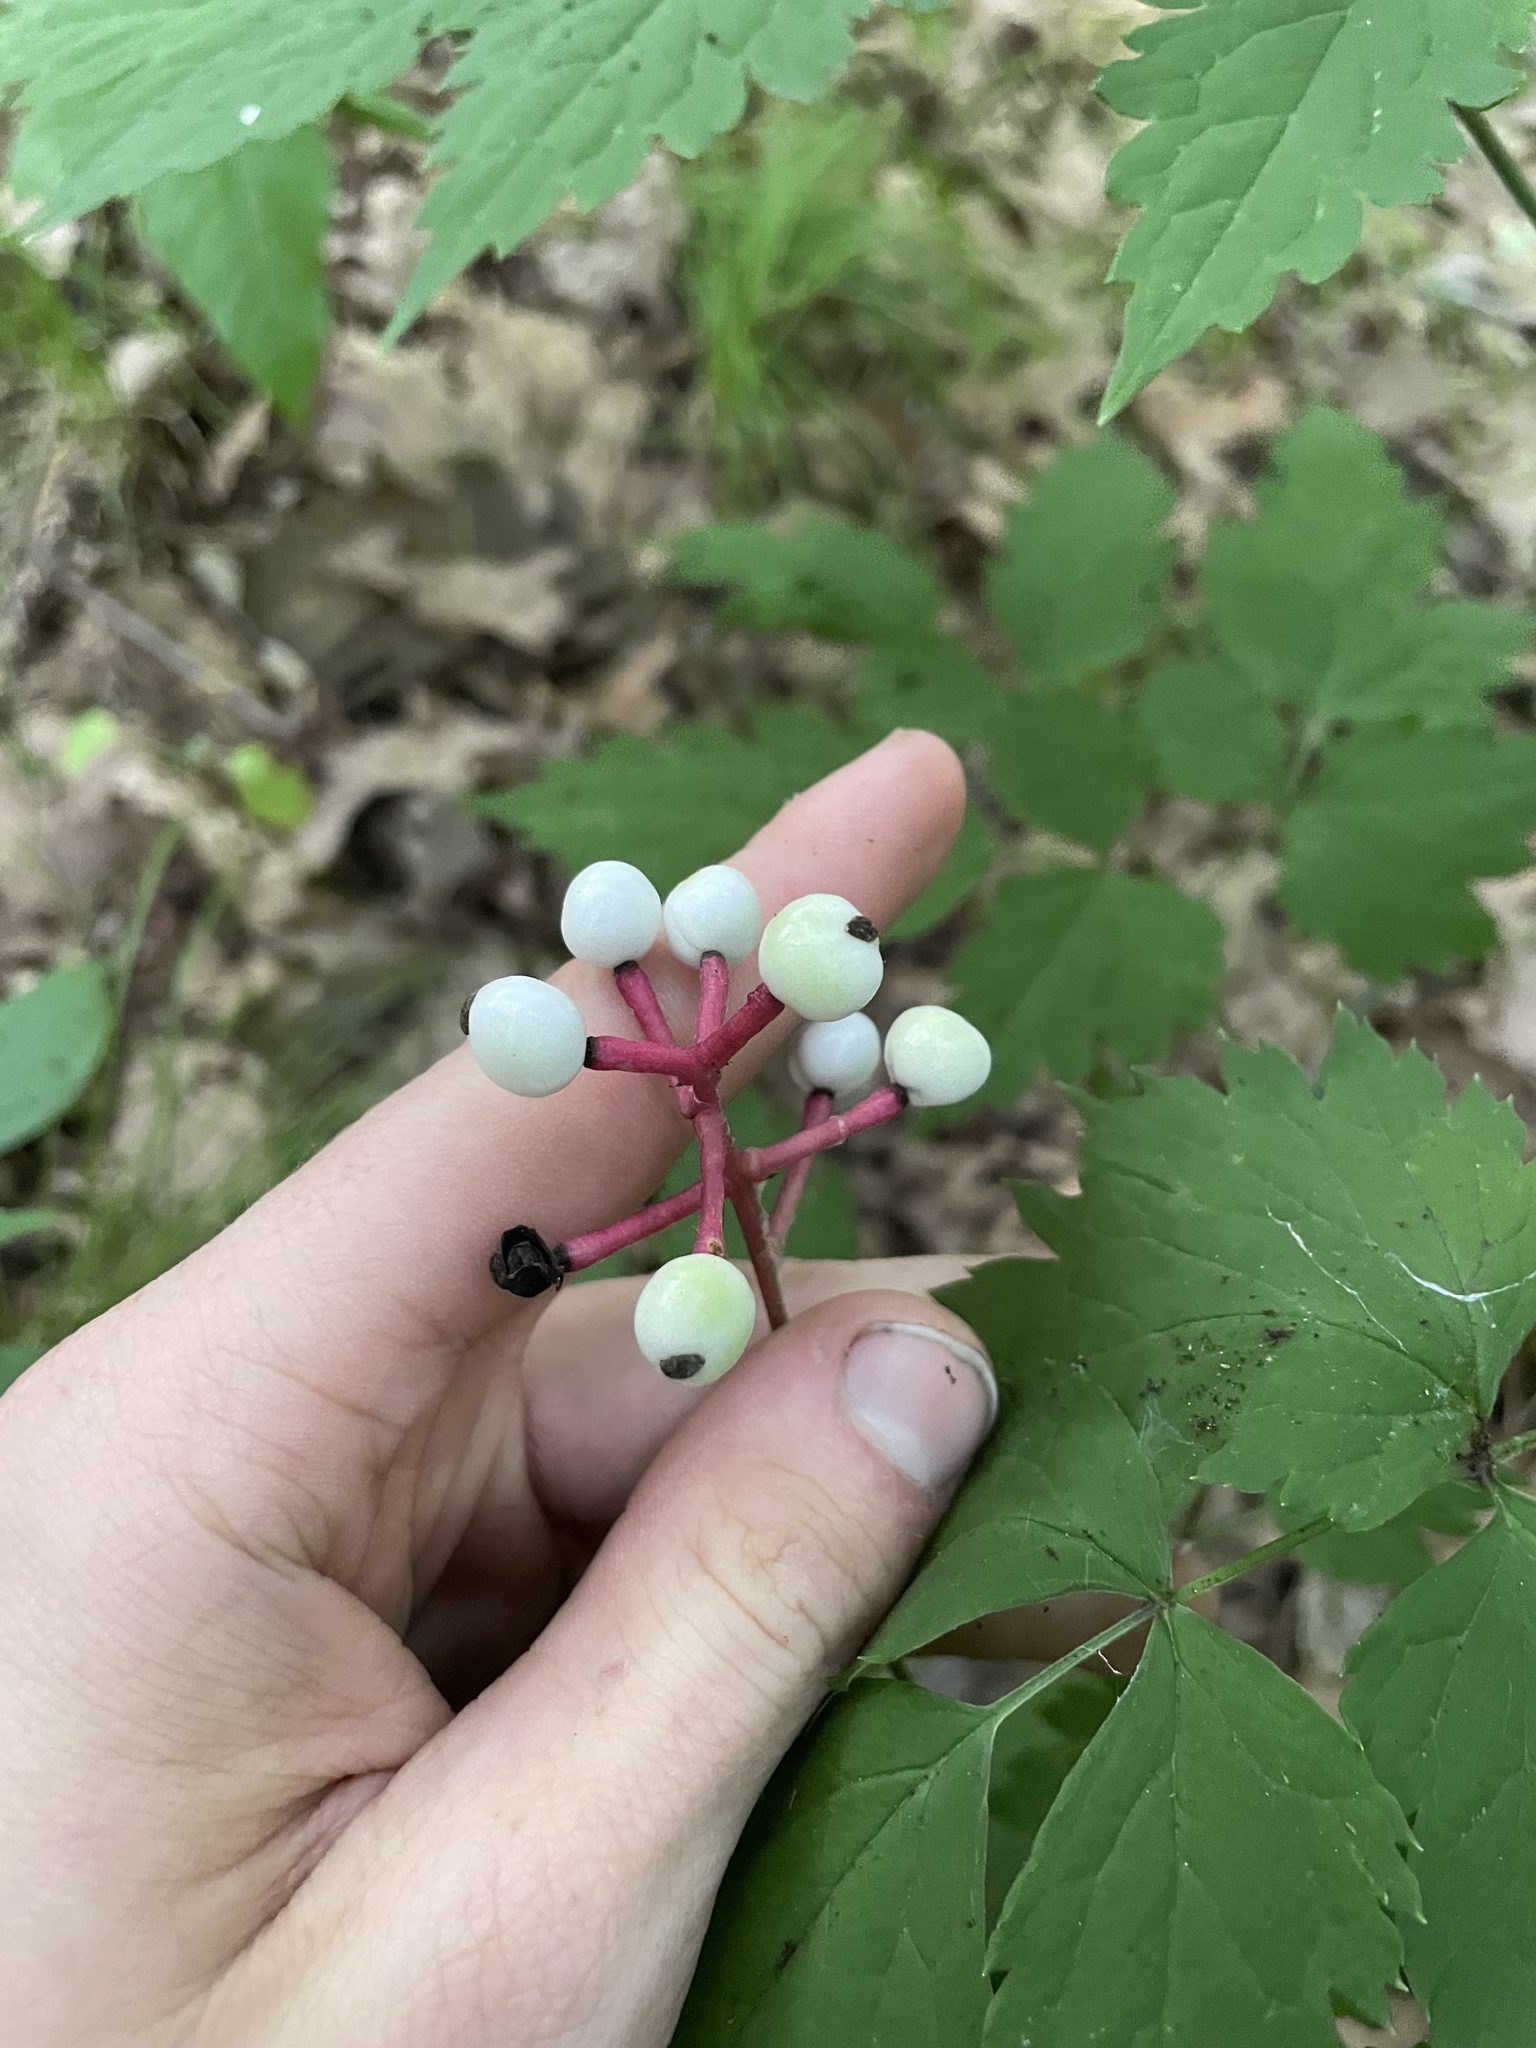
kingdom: Plantae
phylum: Tracheophyta
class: Magnoliopsida
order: Ranunculales
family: Ranunculaceae
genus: Actaea
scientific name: Actaea pachypoda
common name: Doll's-eyes
